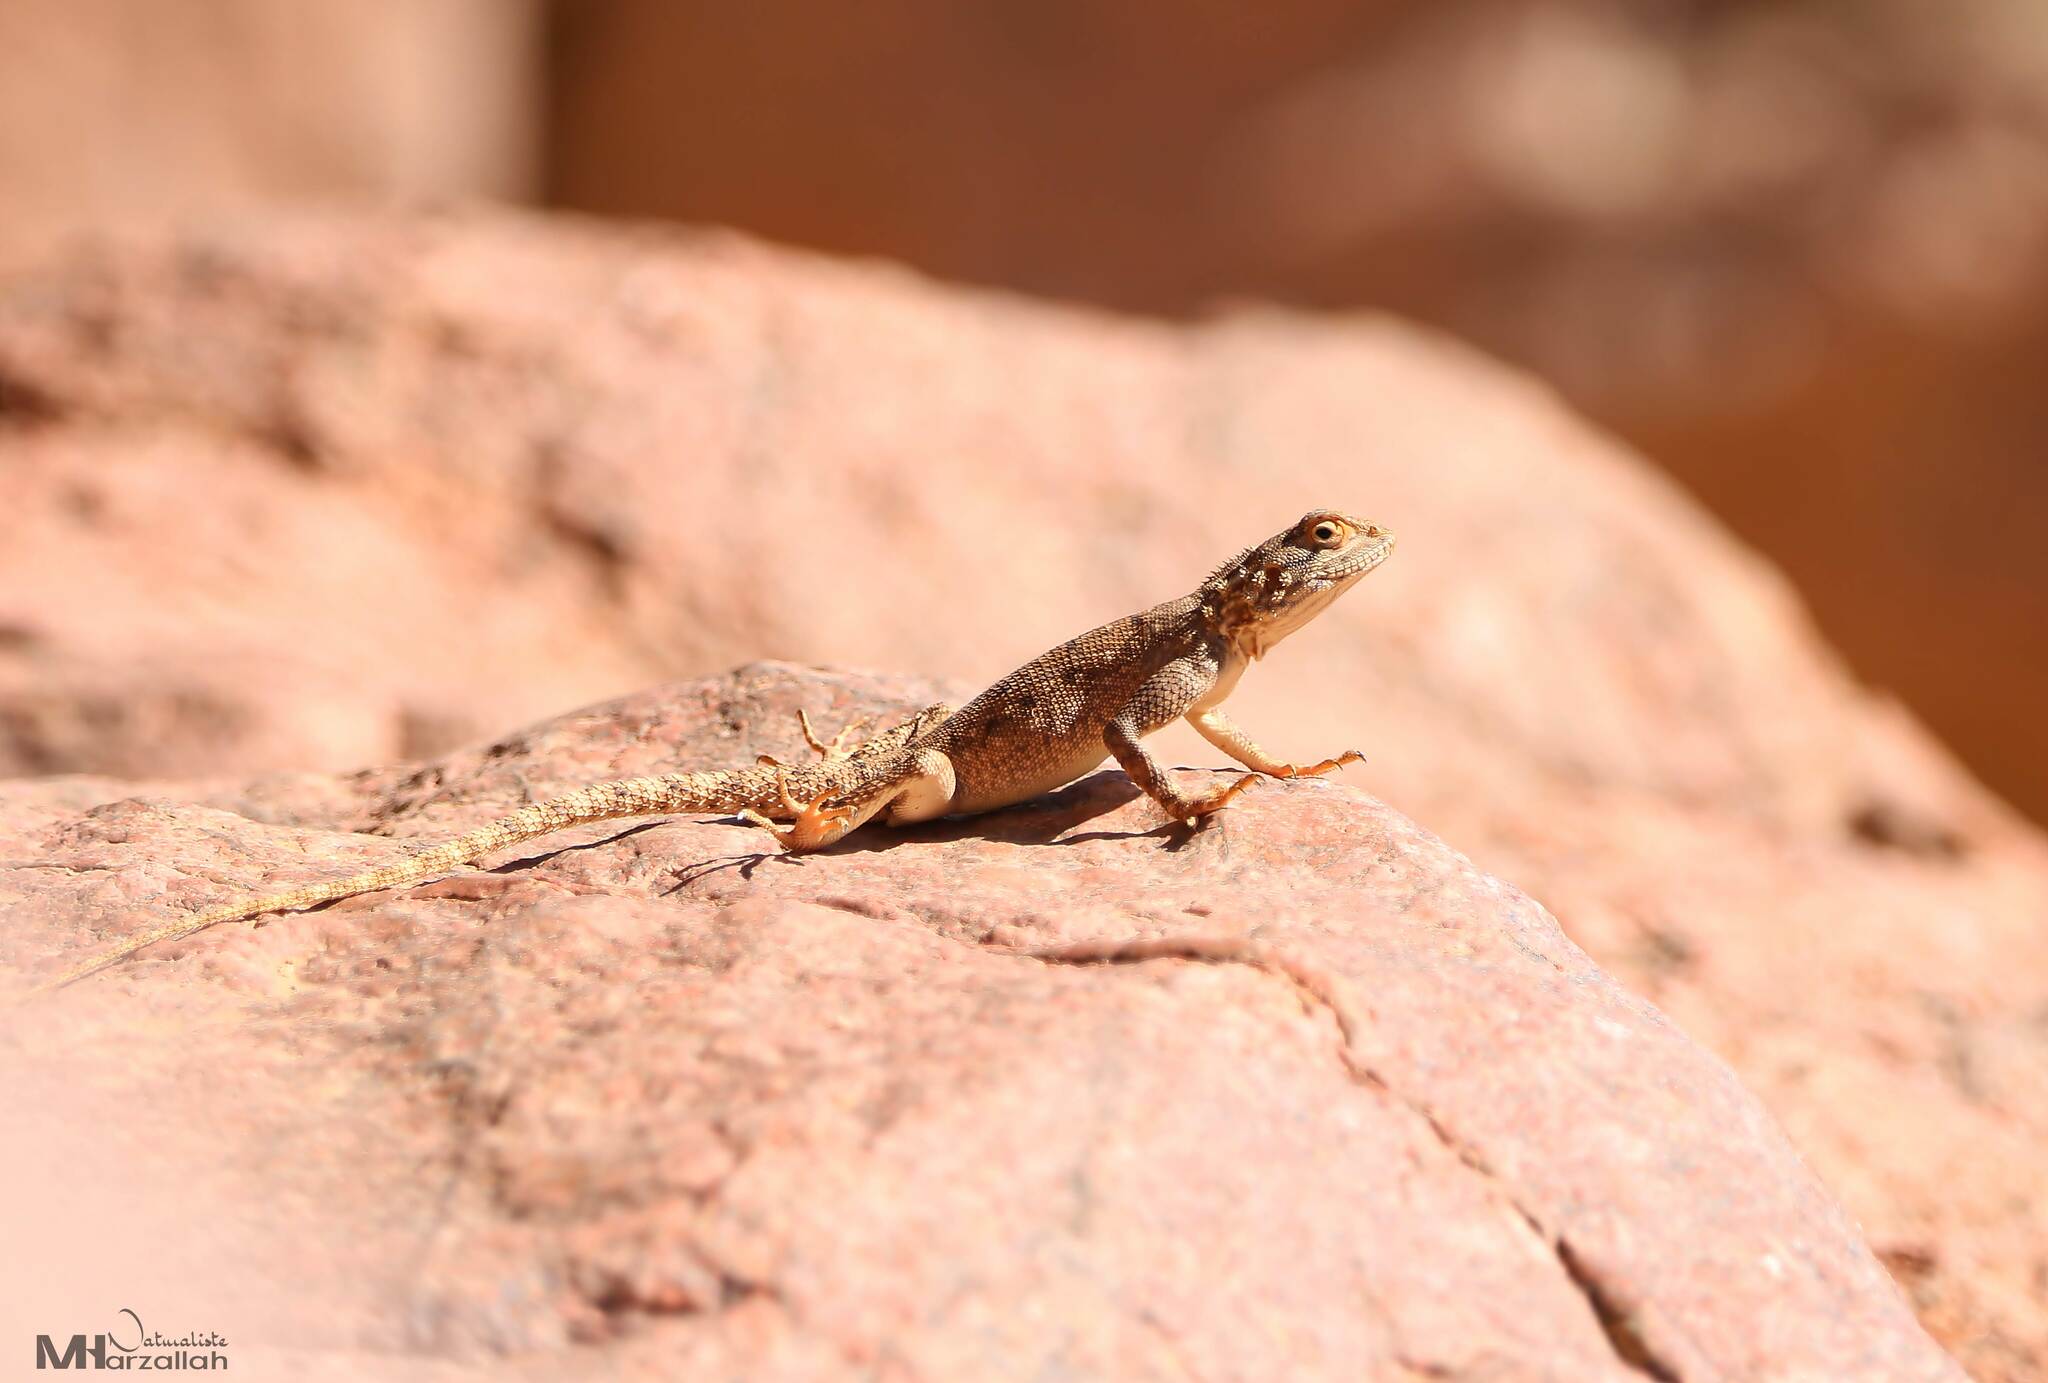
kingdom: Animalia
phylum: Chordata
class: Squamata
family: Agamidae
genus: Agama
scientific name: Agama impalearis
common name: Bibron's agama
